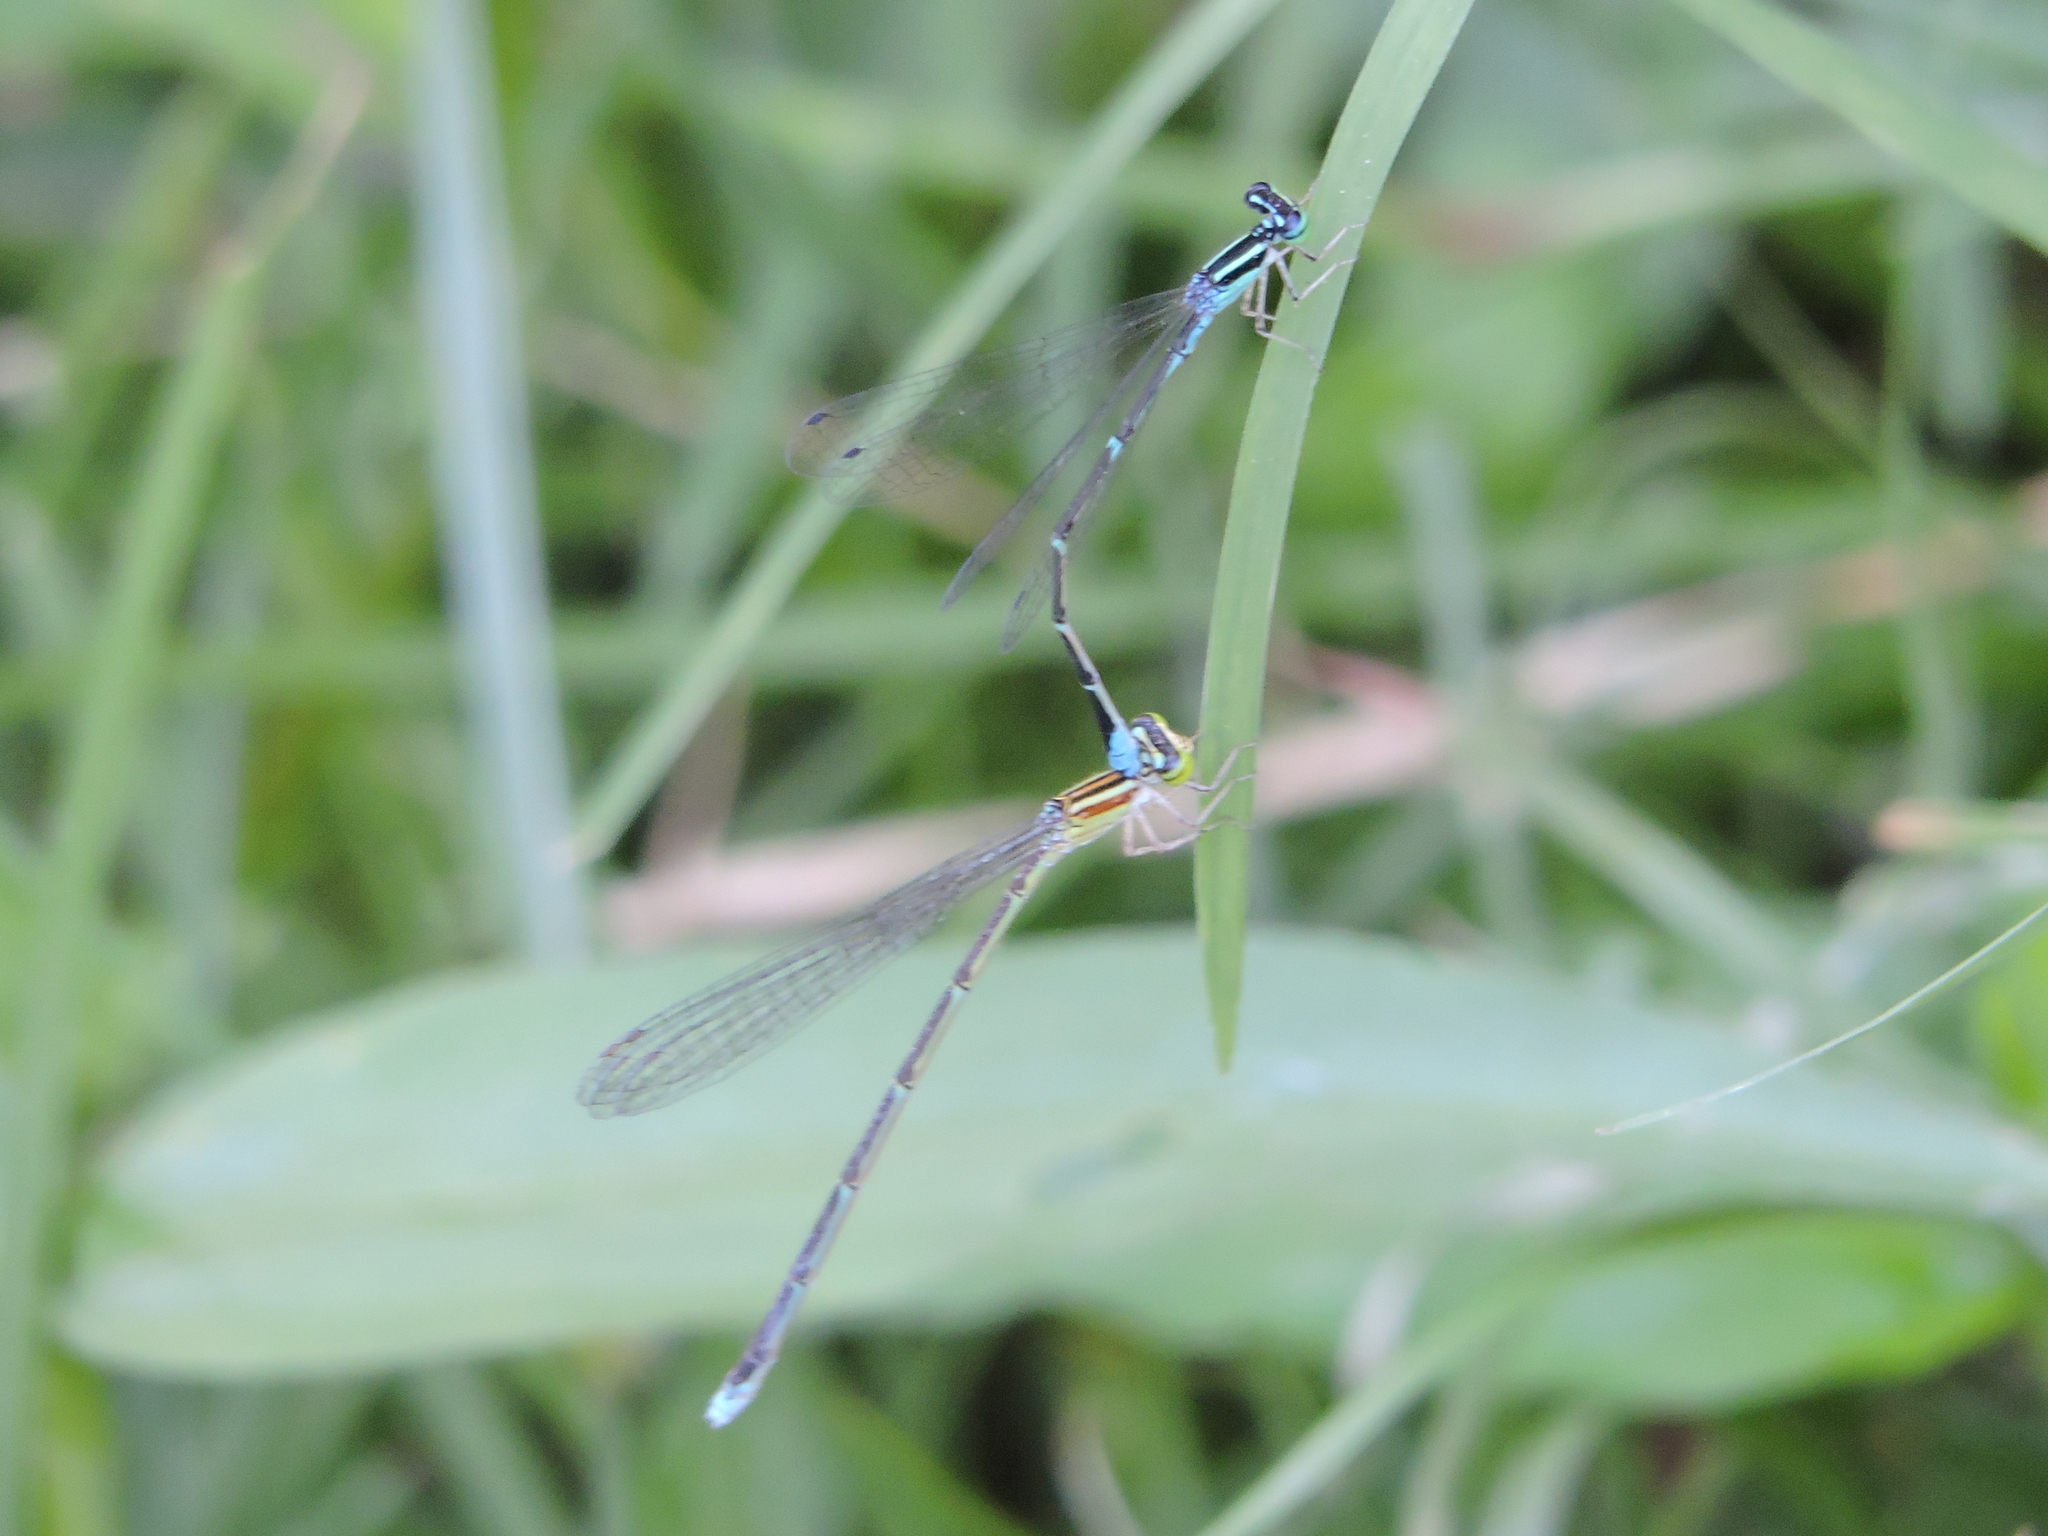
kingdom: Animalia
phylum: Arthropoda
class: Insecta
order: Odonata
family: Coenagrionidae
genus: Enallagma
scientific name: Enallagma exsulans
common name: Stream bluet
